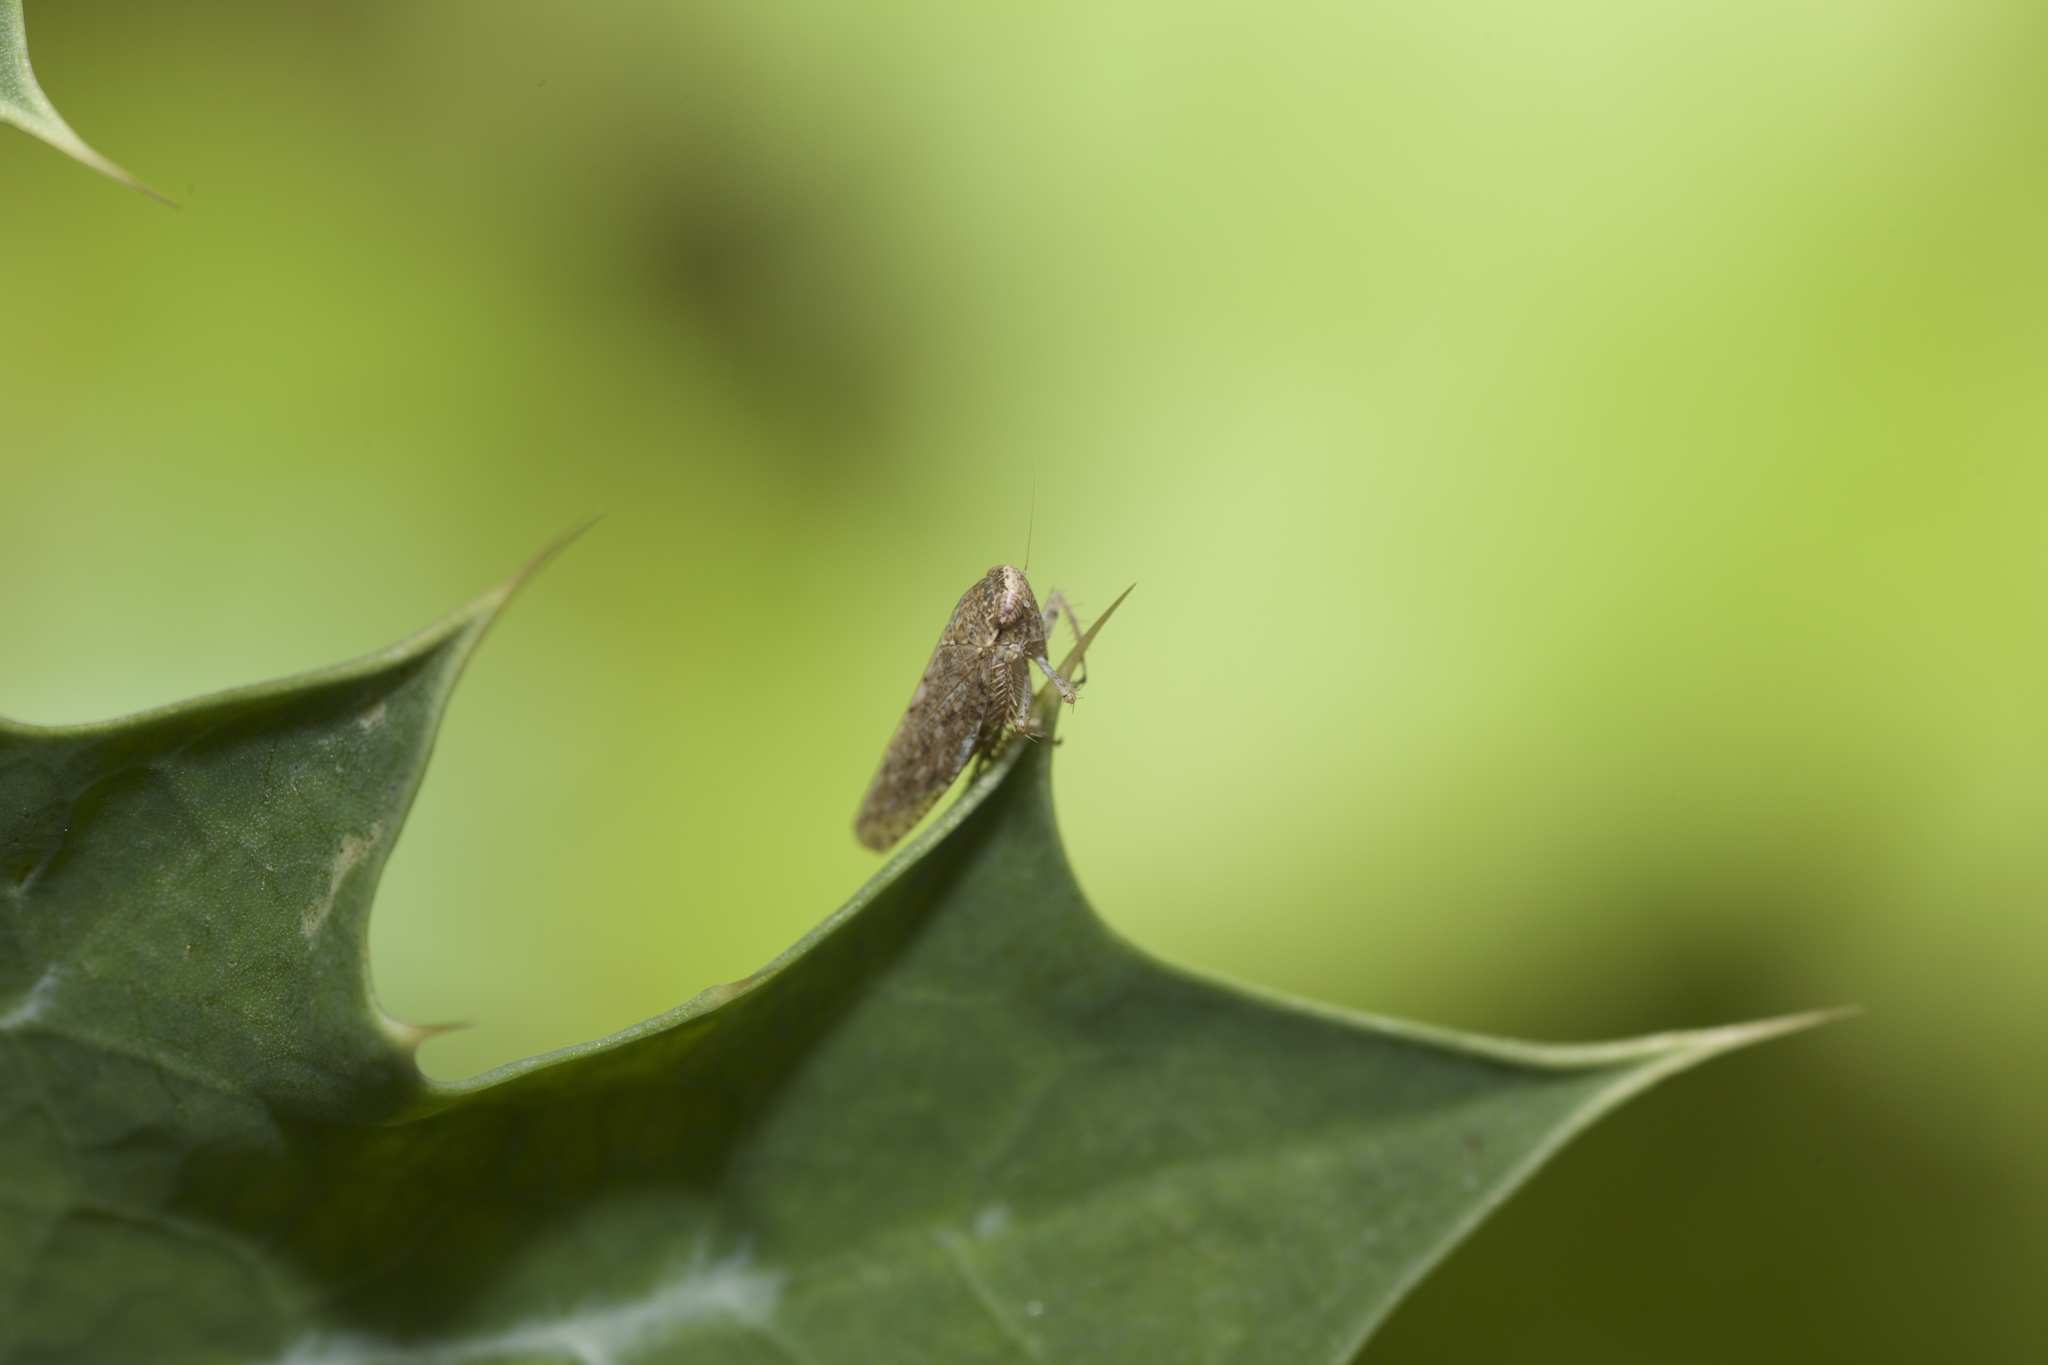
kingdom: Animalia
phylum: Arthropoda
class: Insecta
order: Hemiptera
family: Cicadellidae
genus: Texananus
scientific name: Texananus
